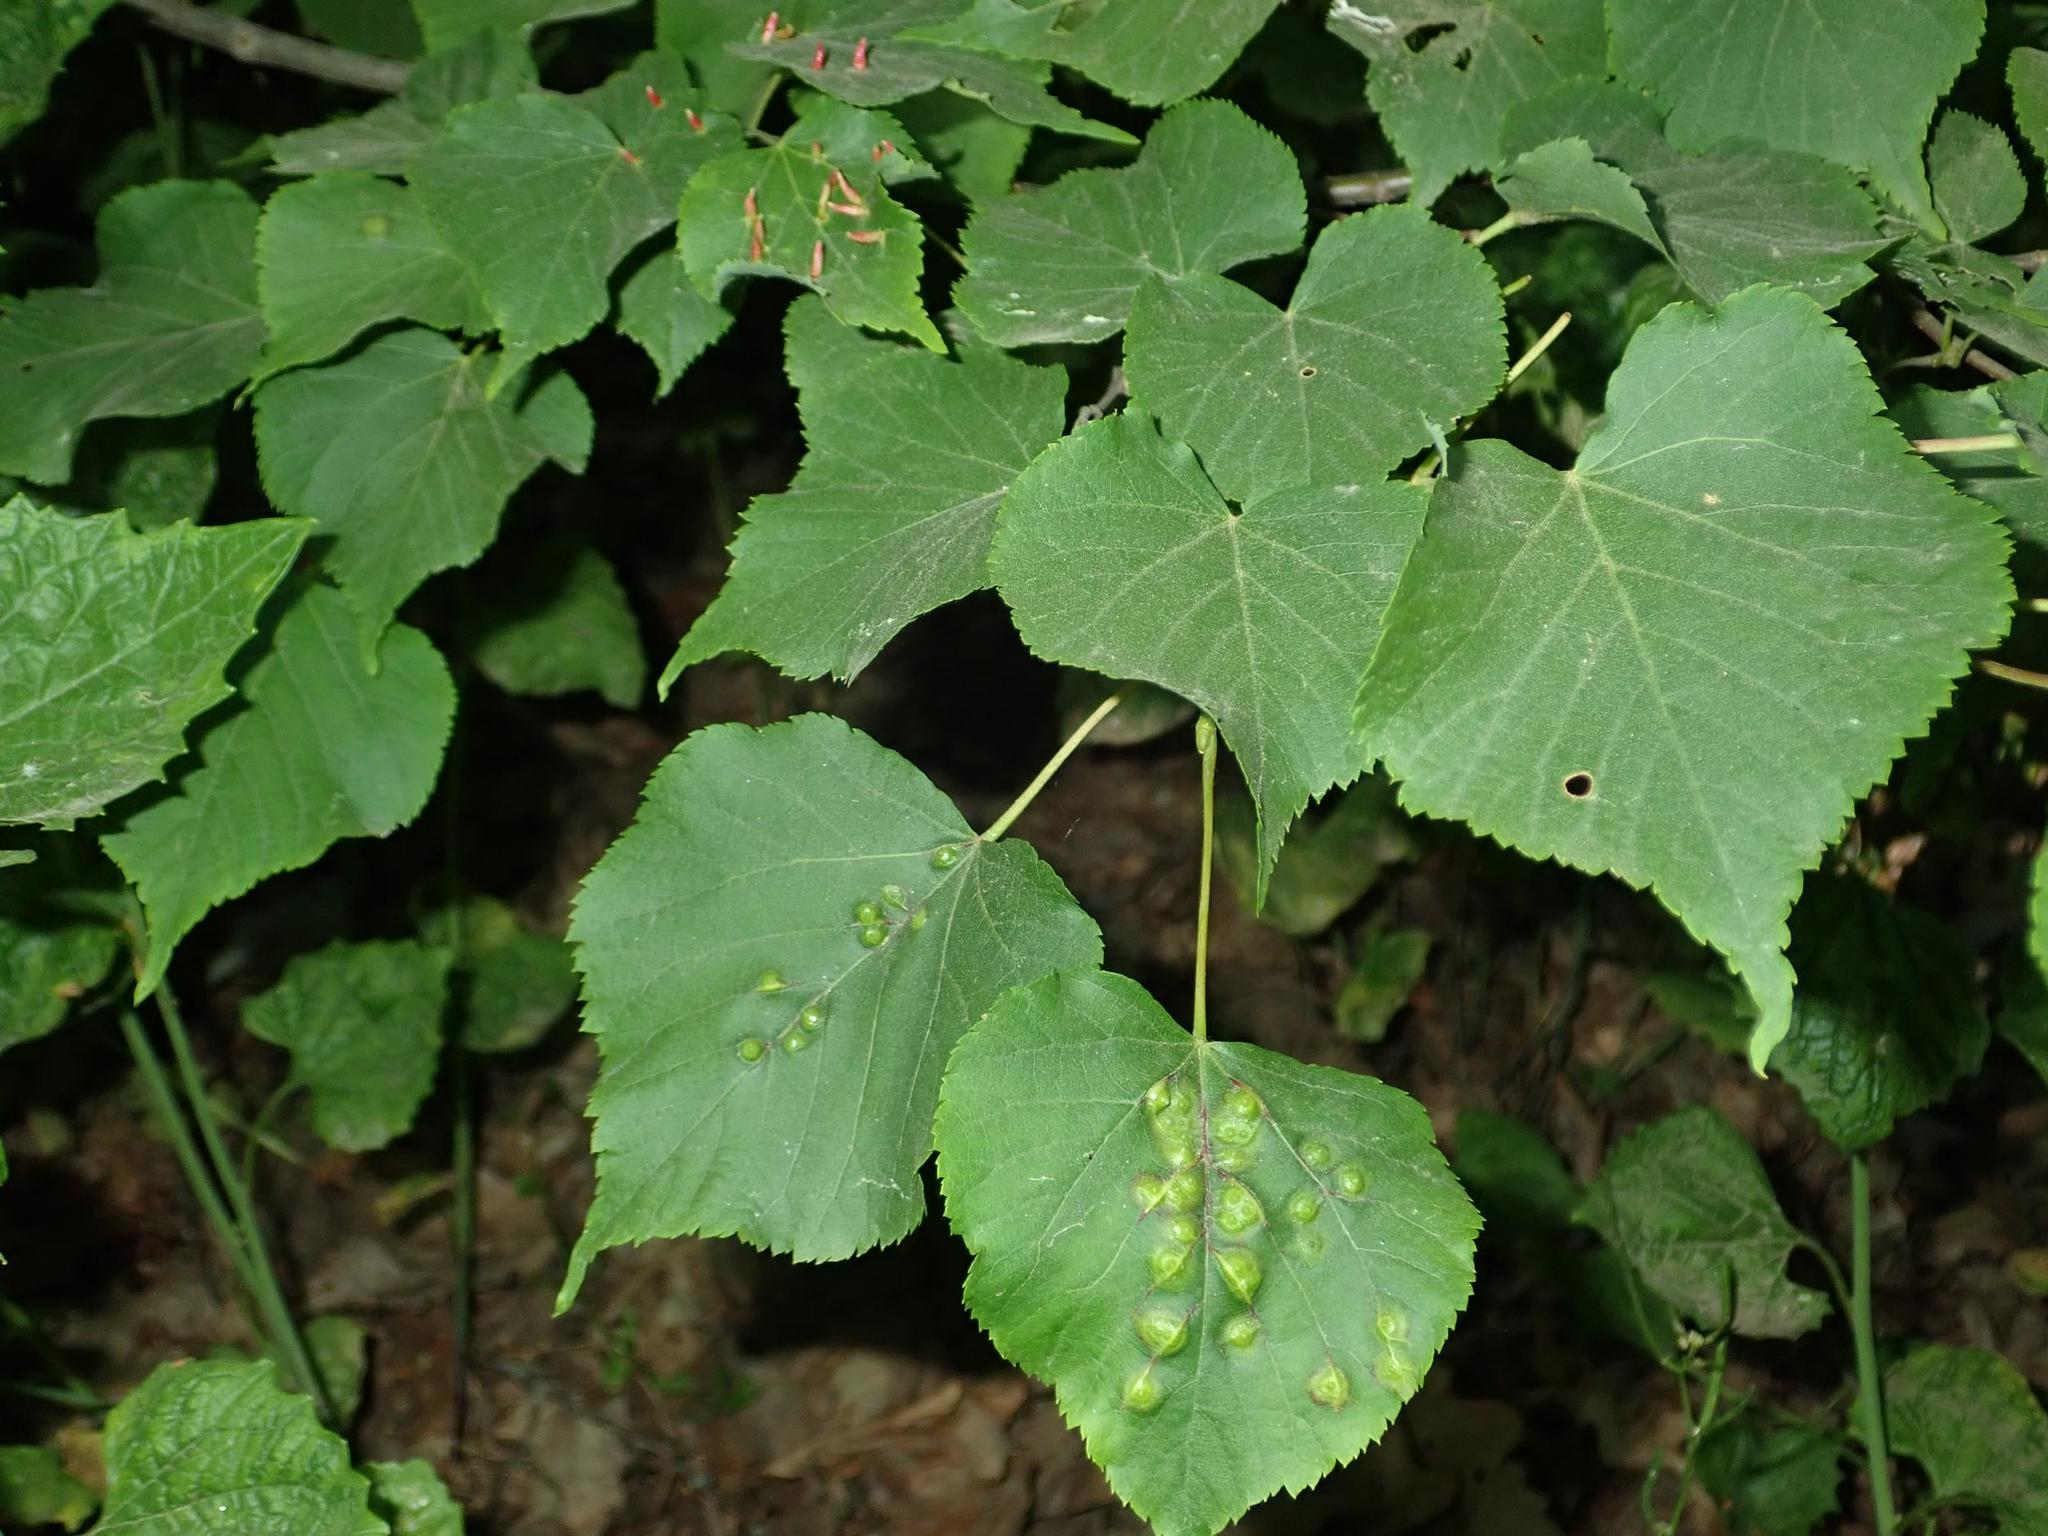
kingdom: Plantae
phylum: Tracheophyta
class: Magnoliopsida
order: Malvales
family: Malvaceae
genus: Tilia
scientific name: Tilia cordata
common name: Small-leaved lime
